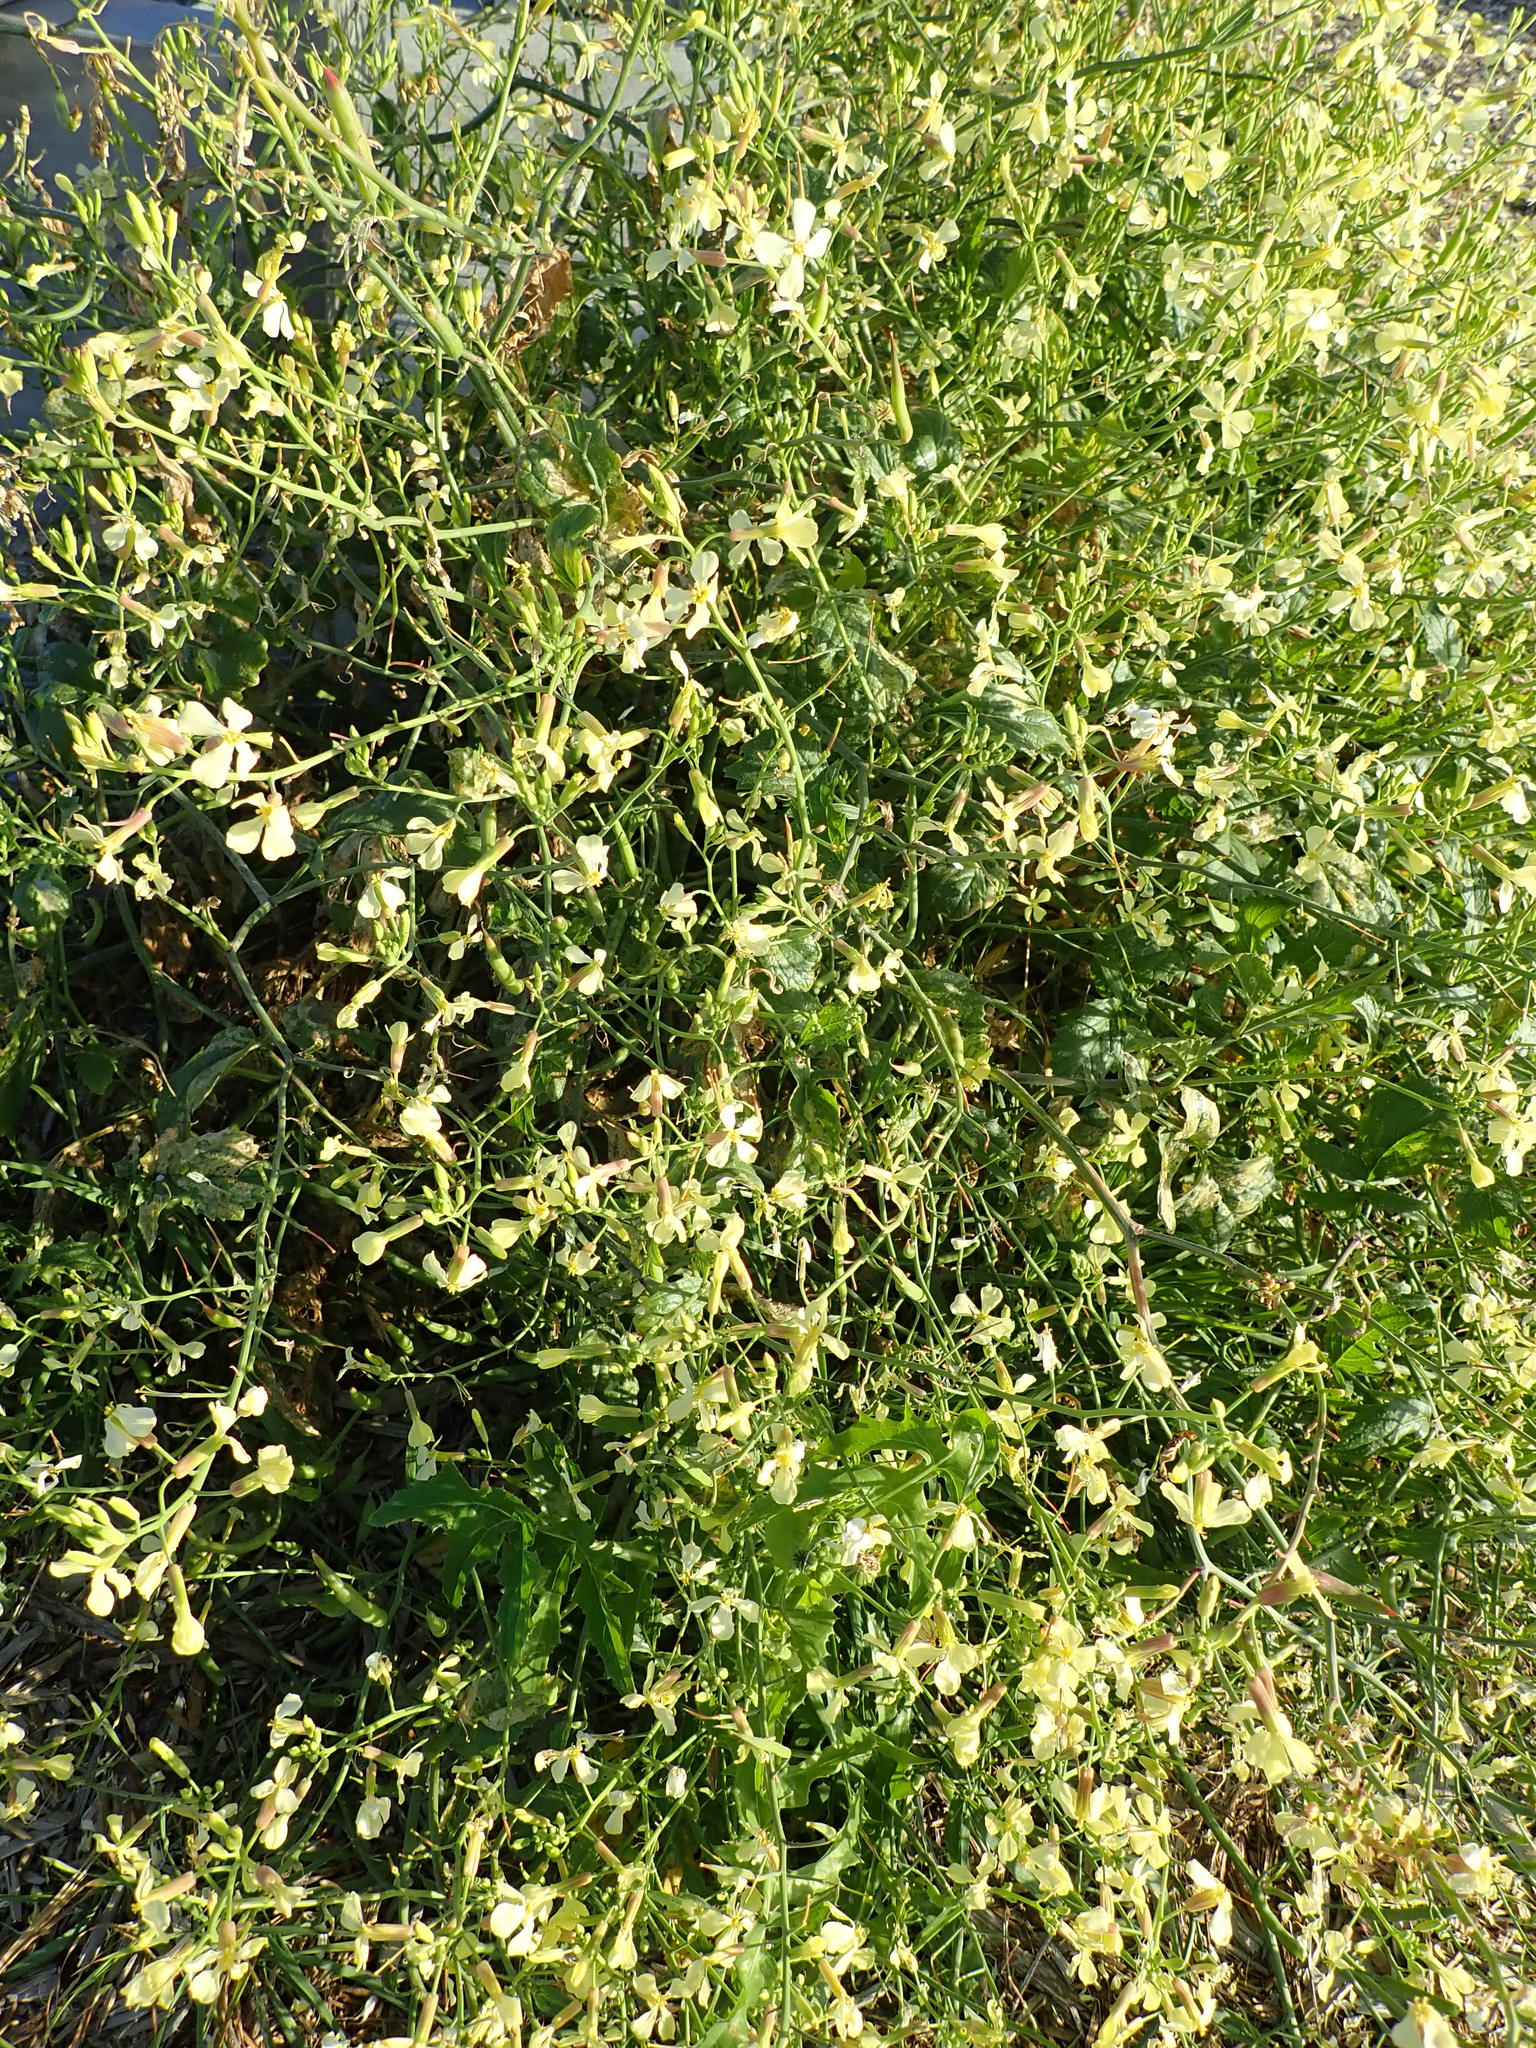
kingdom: Plantae
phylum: Tracheophyta
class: Magnoliopsida
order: Brassicales
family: Brassicaceae
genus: Raphanus
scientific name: Raphanus raphanistrum
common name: Wild radish
